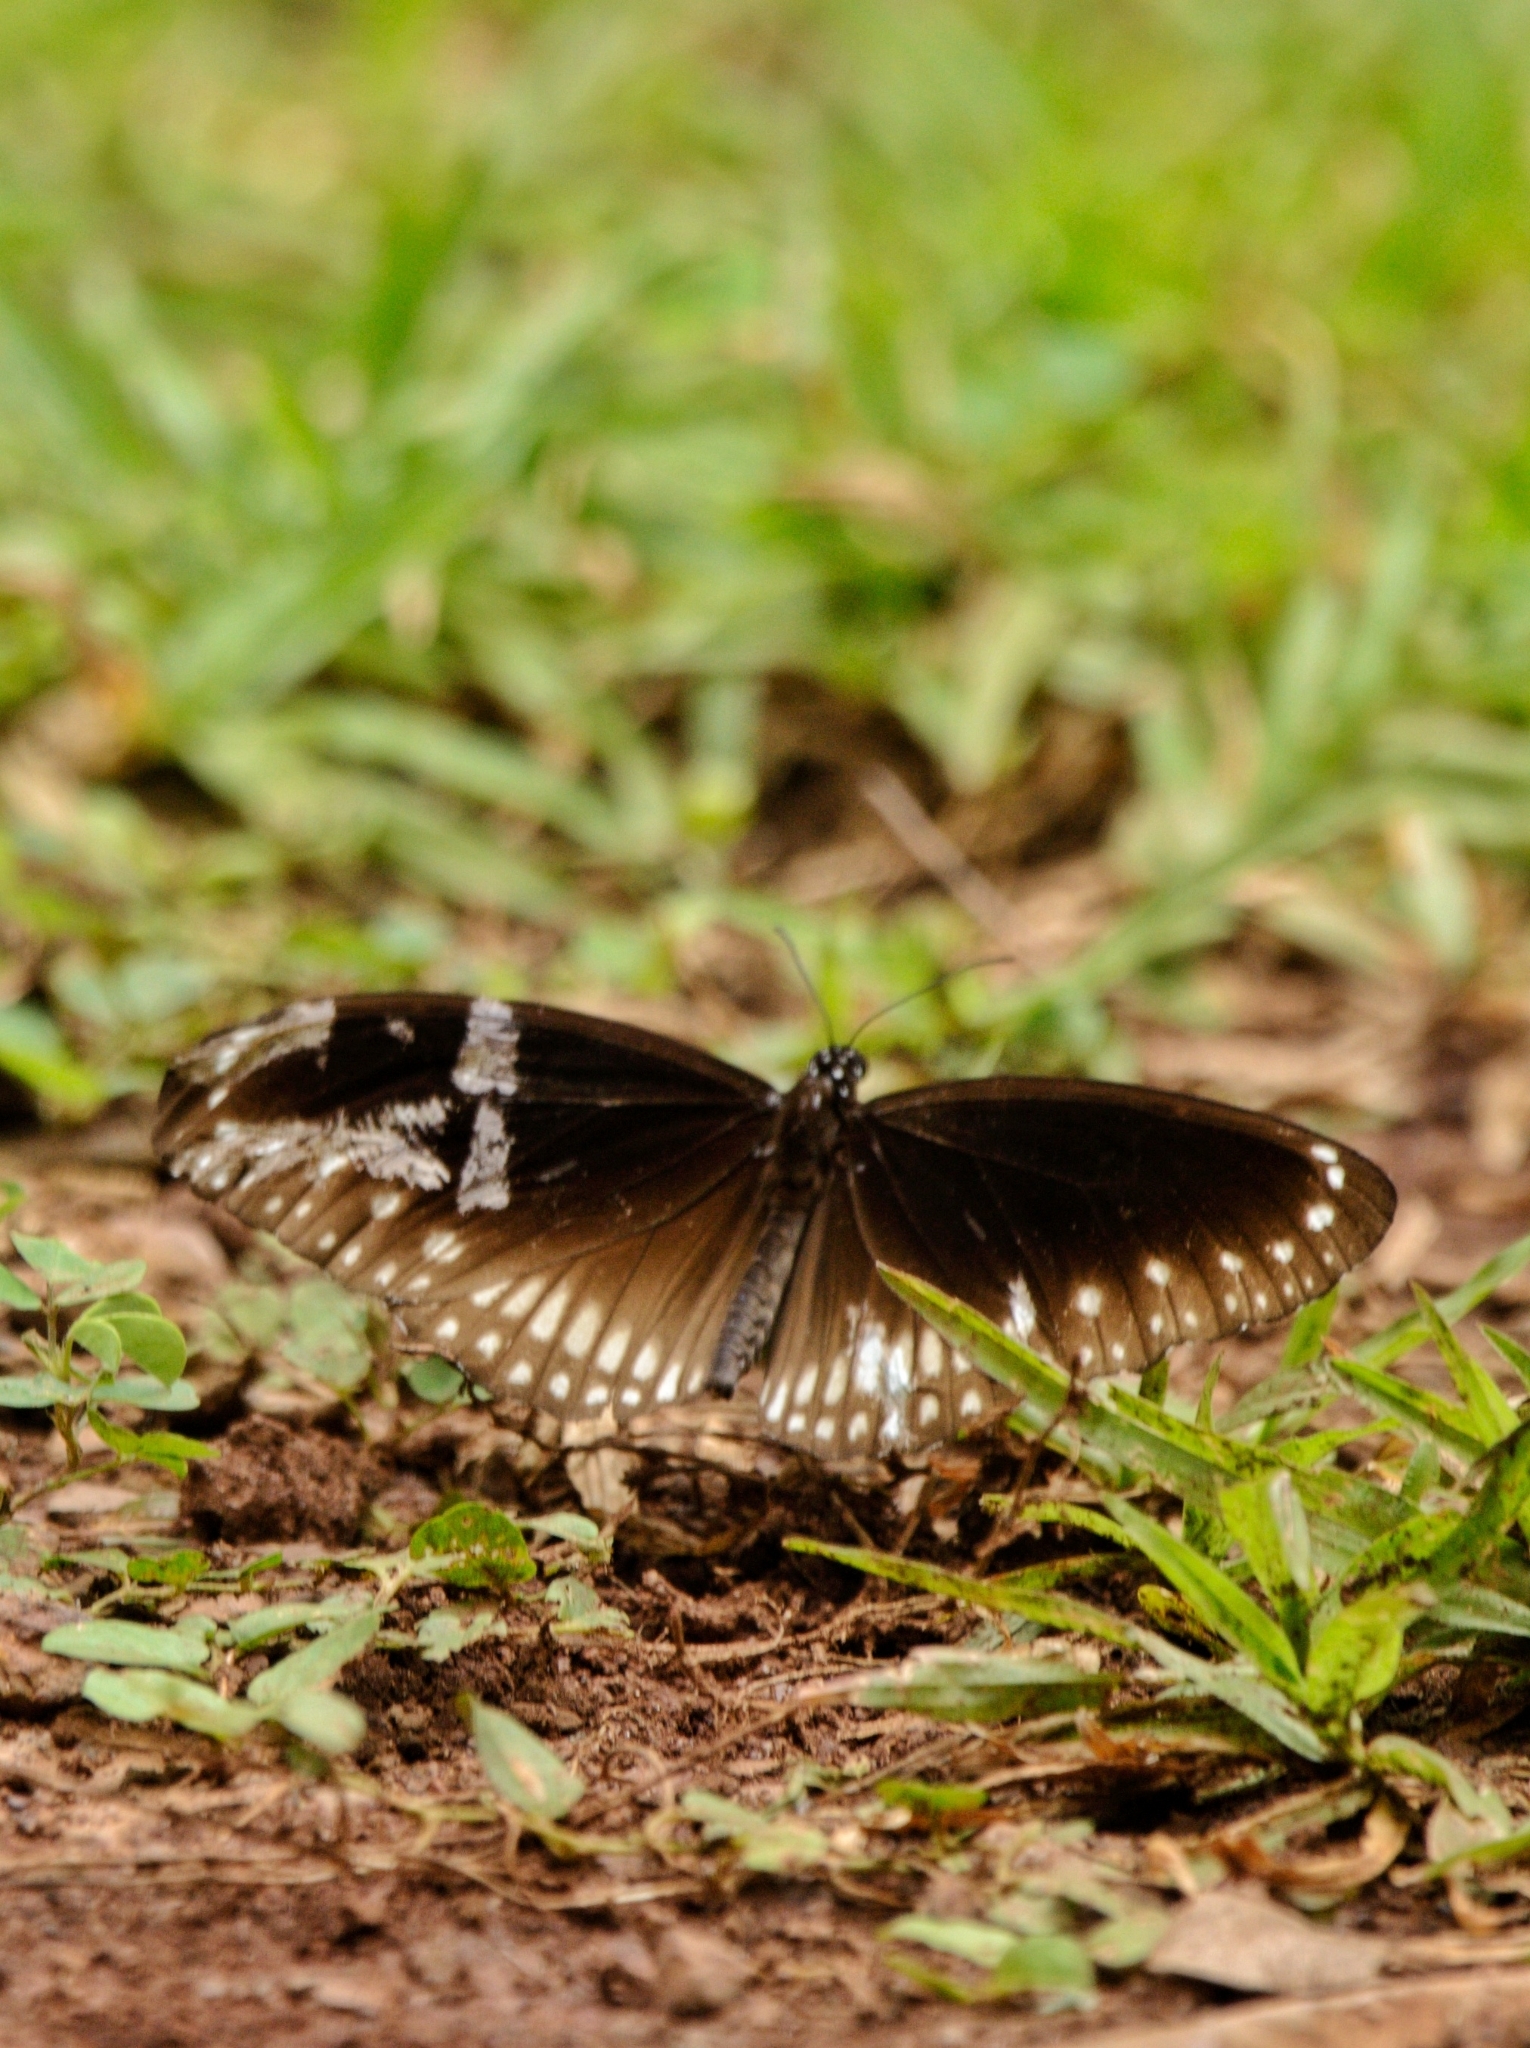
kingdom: Animalia
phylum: Arthropoda
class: Insecta
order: Lepidoptera
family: Nymphalidae
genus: Euploea
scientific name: Euploea sylvester
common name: Double-branded crow butterfly
